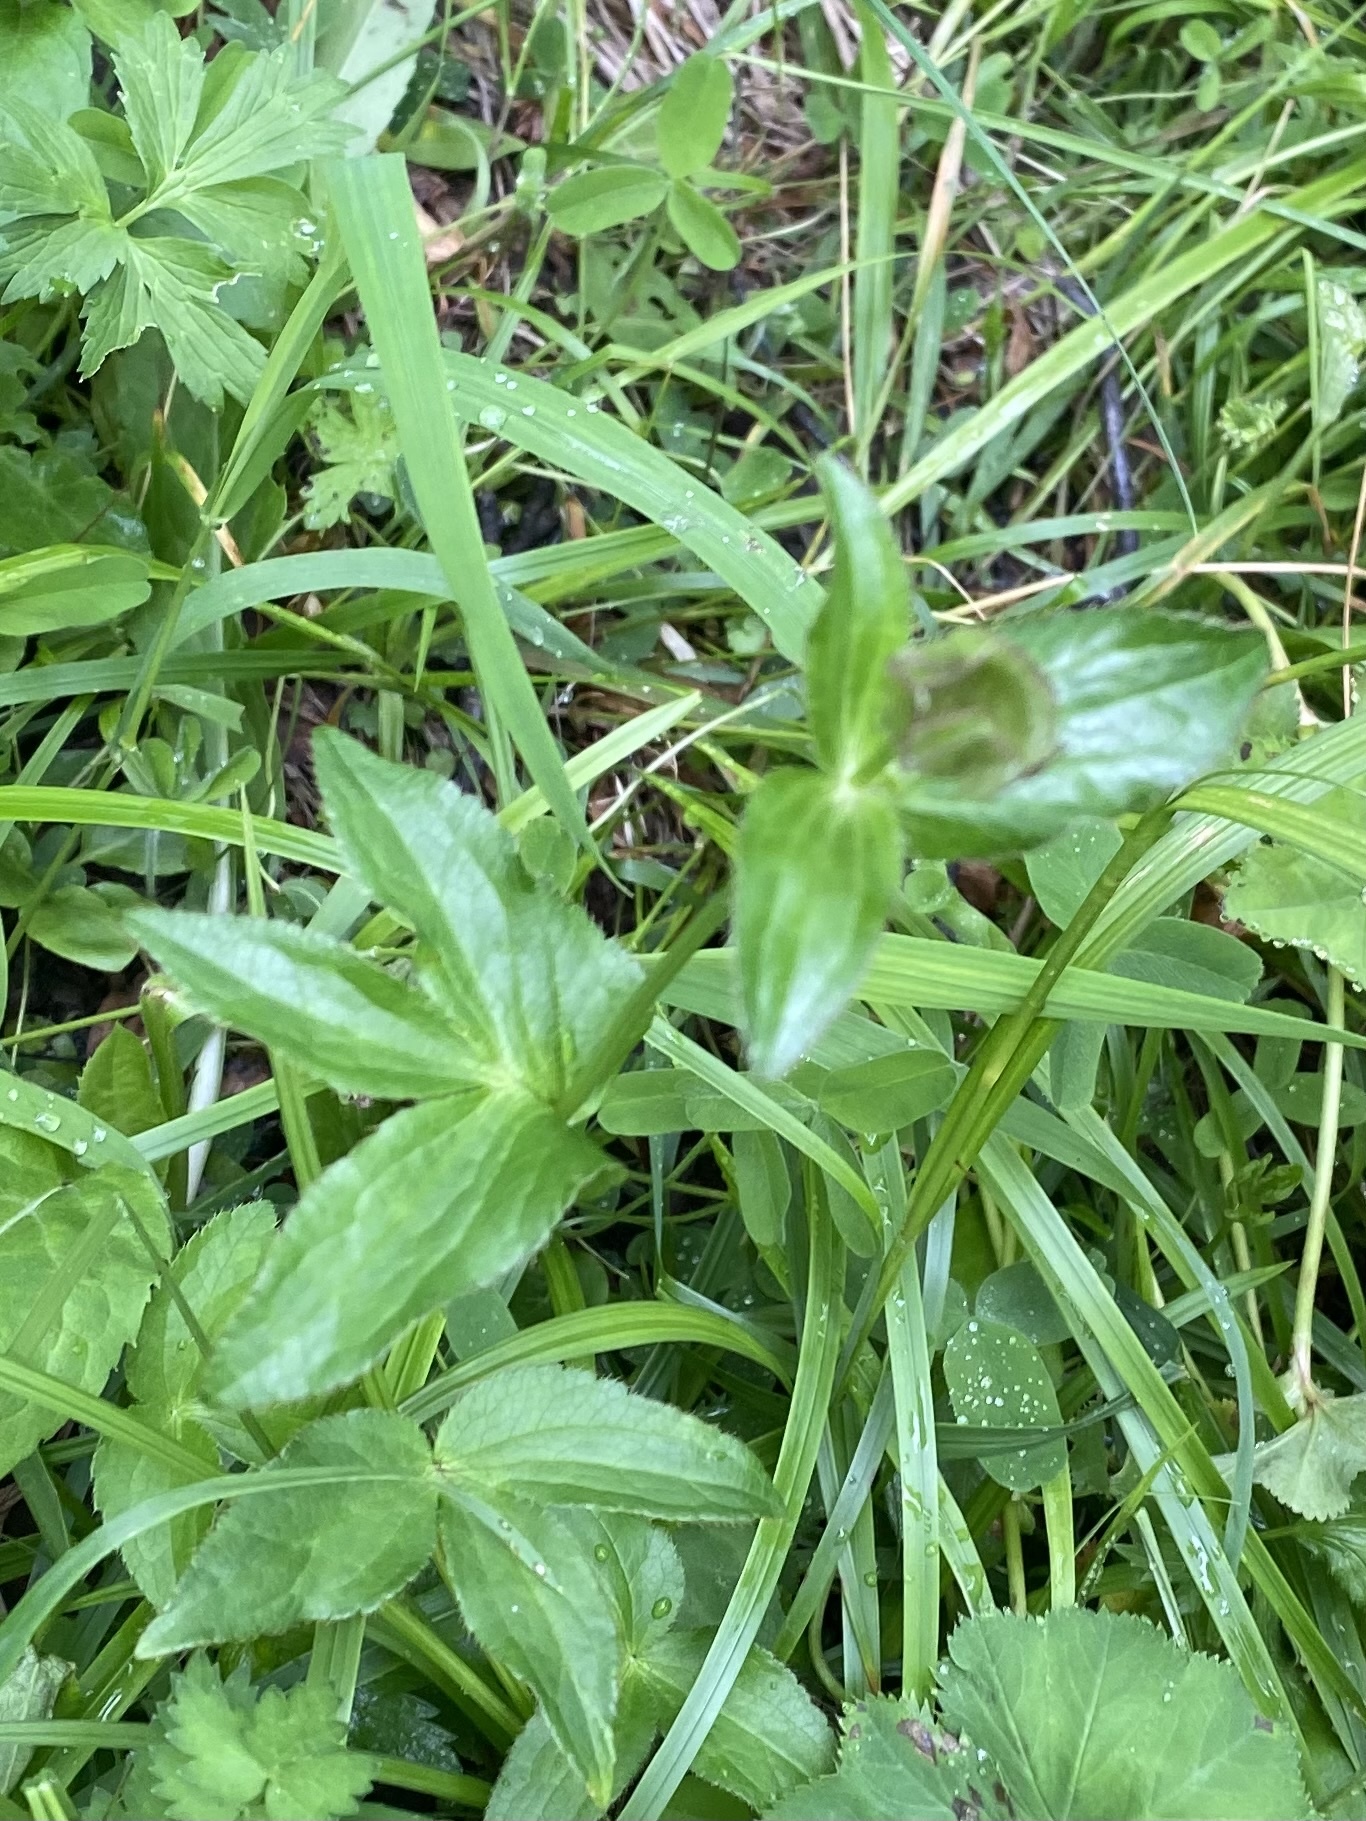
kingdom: Plantae
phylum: Tracheophyta
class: Magnoliopsida
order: Apiales
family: Apiaceae
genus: Astrantia
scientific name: Astrantia maxima
